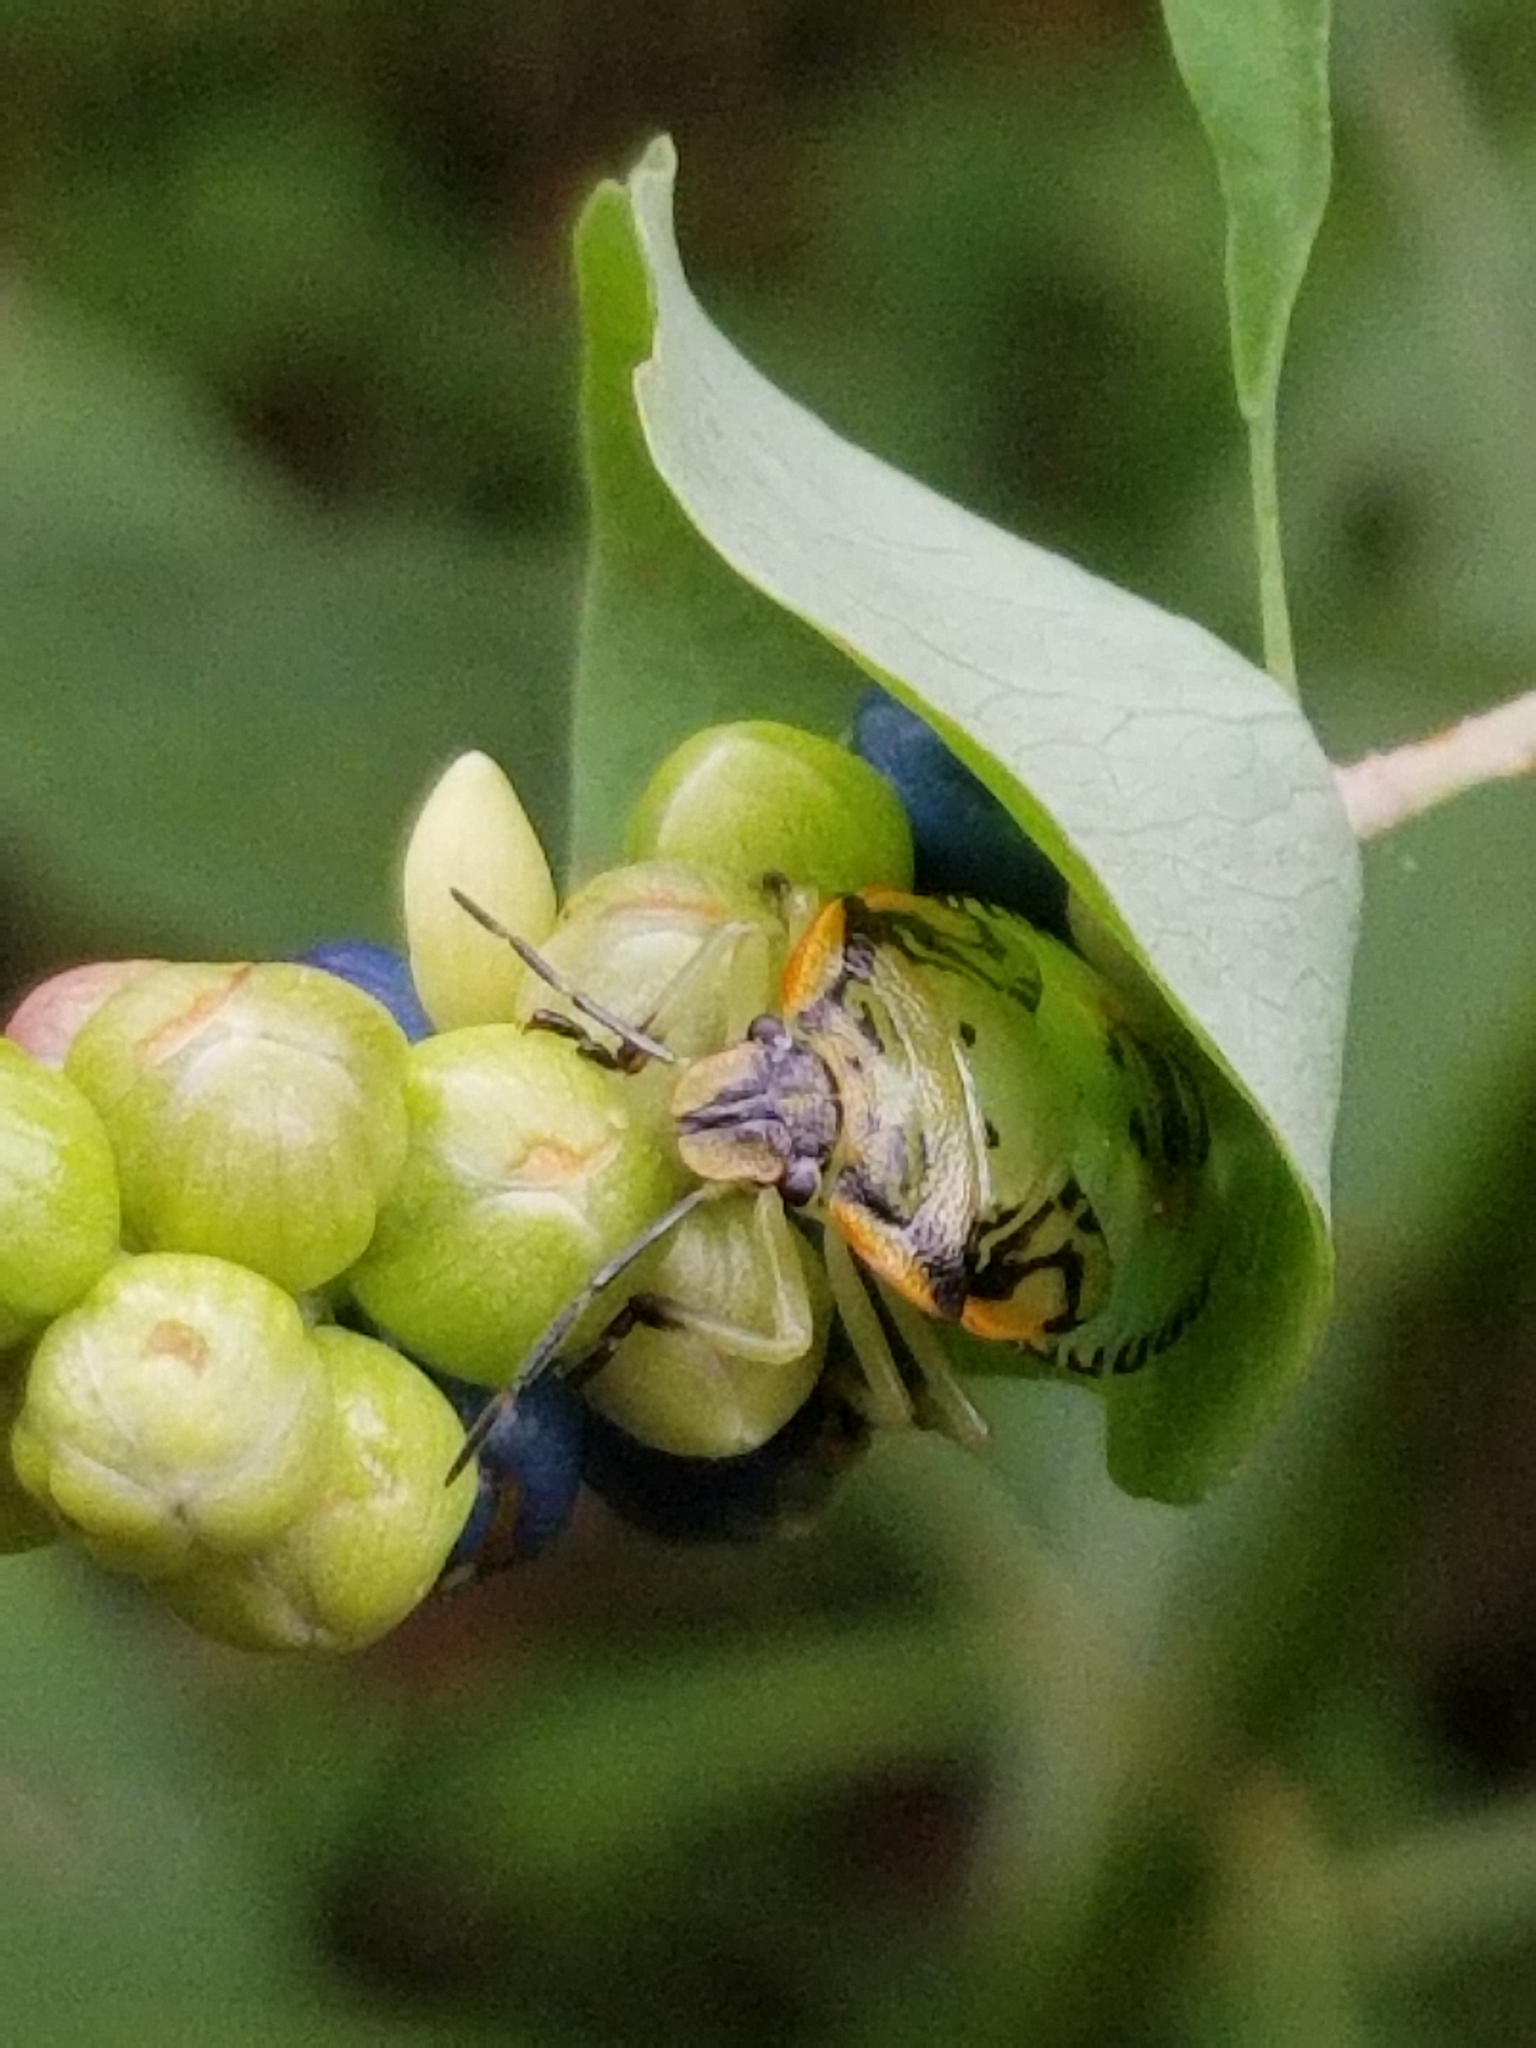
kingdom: Animalia
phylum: Arthropoda
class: Insecta
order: Hemiptera
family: Pentatomidae
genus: Chinavia
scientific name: Chinavia hilaris
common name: Green stink bug
